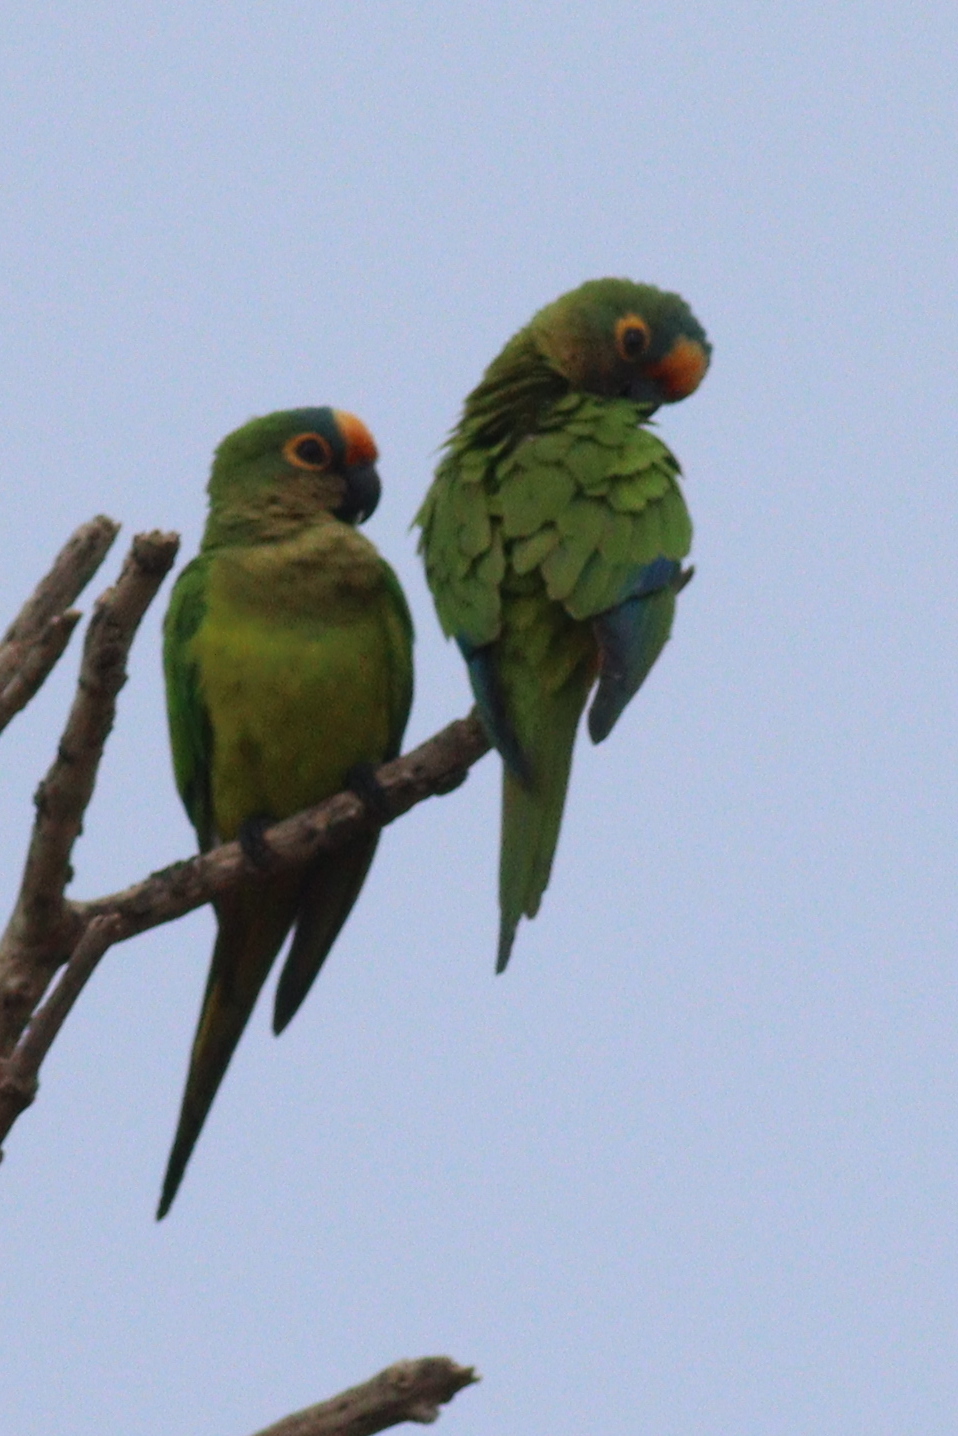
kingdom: Animalia
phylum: Chordata
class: Aves
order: Psittaciformes
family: Psittacidae
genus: Aratinga
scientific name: Aratinga aurea
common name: Peach-fronted parakeet
